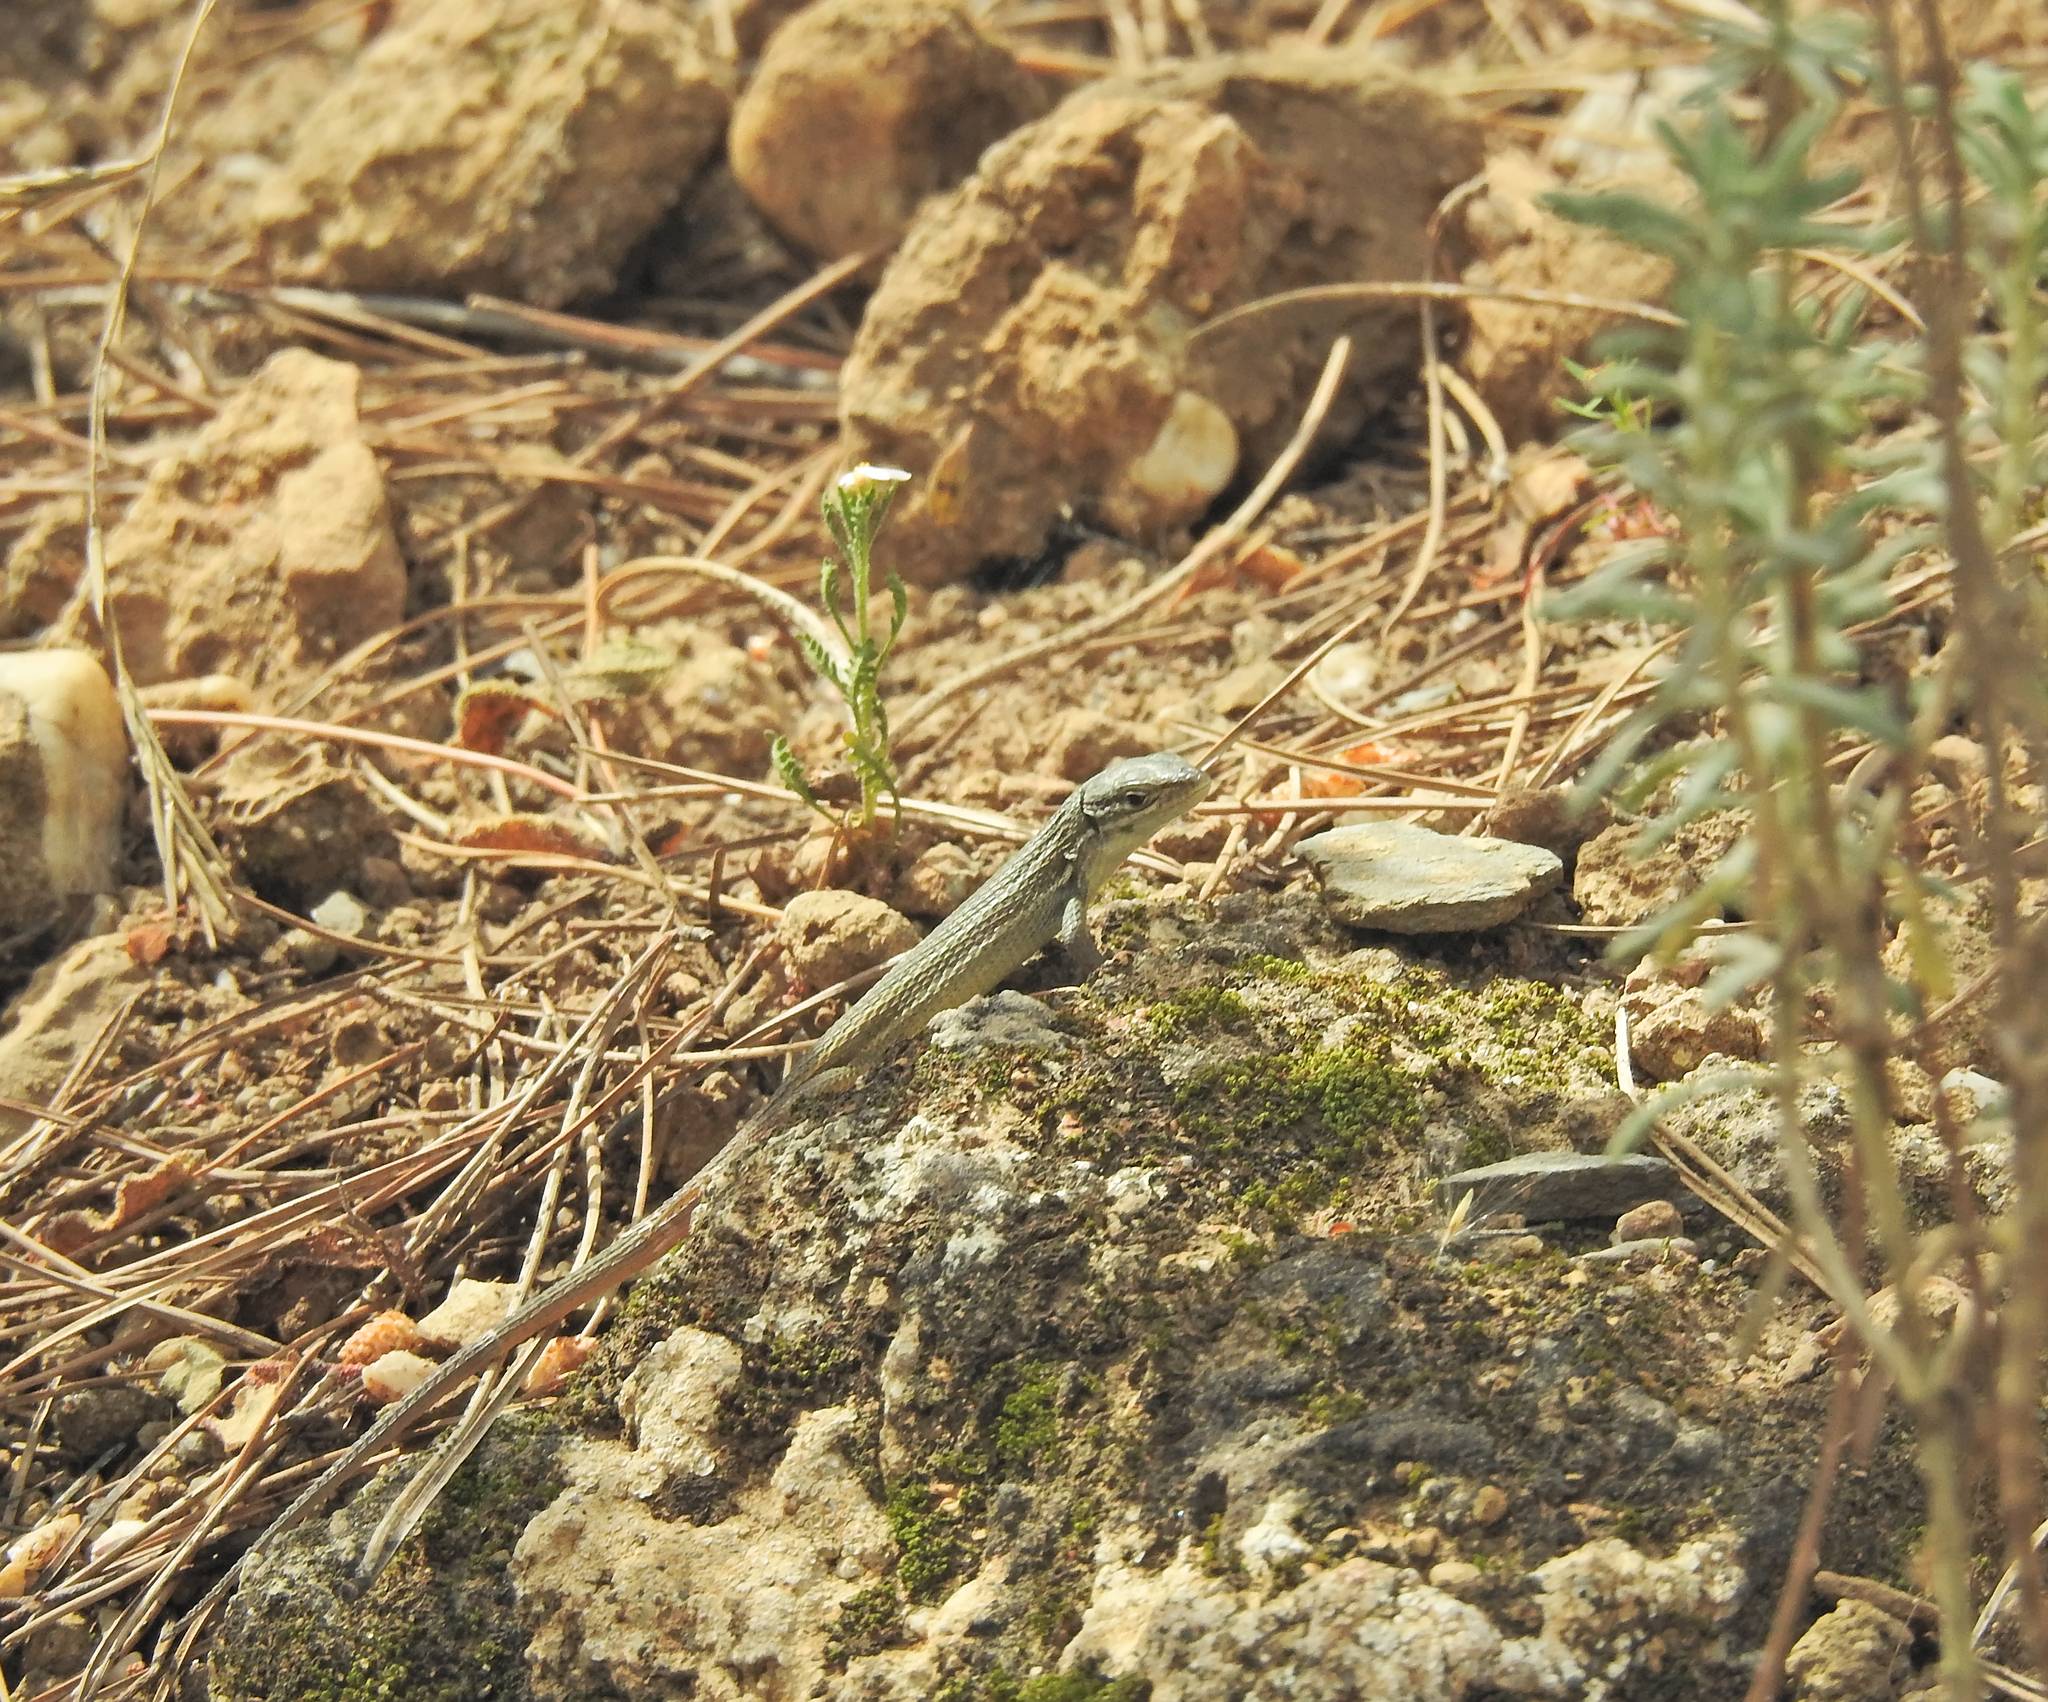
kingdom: Animalia
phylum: Chordata
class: Squamata
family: Lacertidae
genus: Psammodromus
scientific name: Psammodromus algirus
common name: Algerian psammodromus
